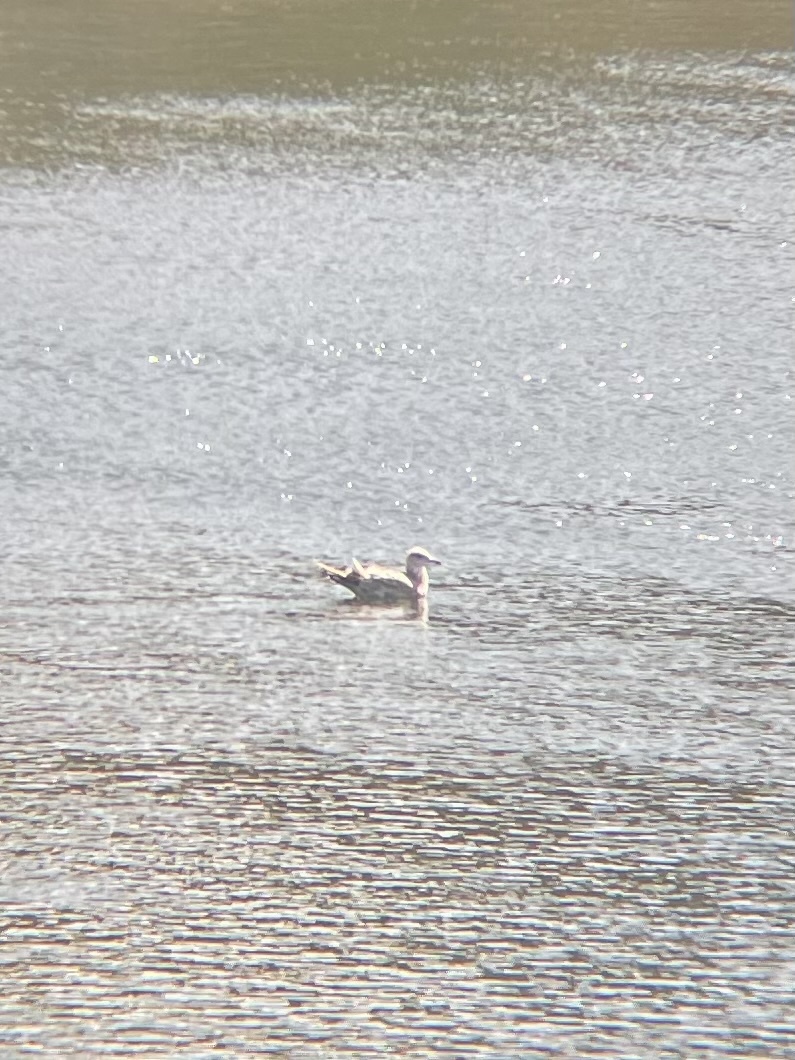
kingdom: Animalia
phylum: Chordata
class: Aves
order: Charadriiformes
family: Laridae
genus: Larus
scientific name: Larus
